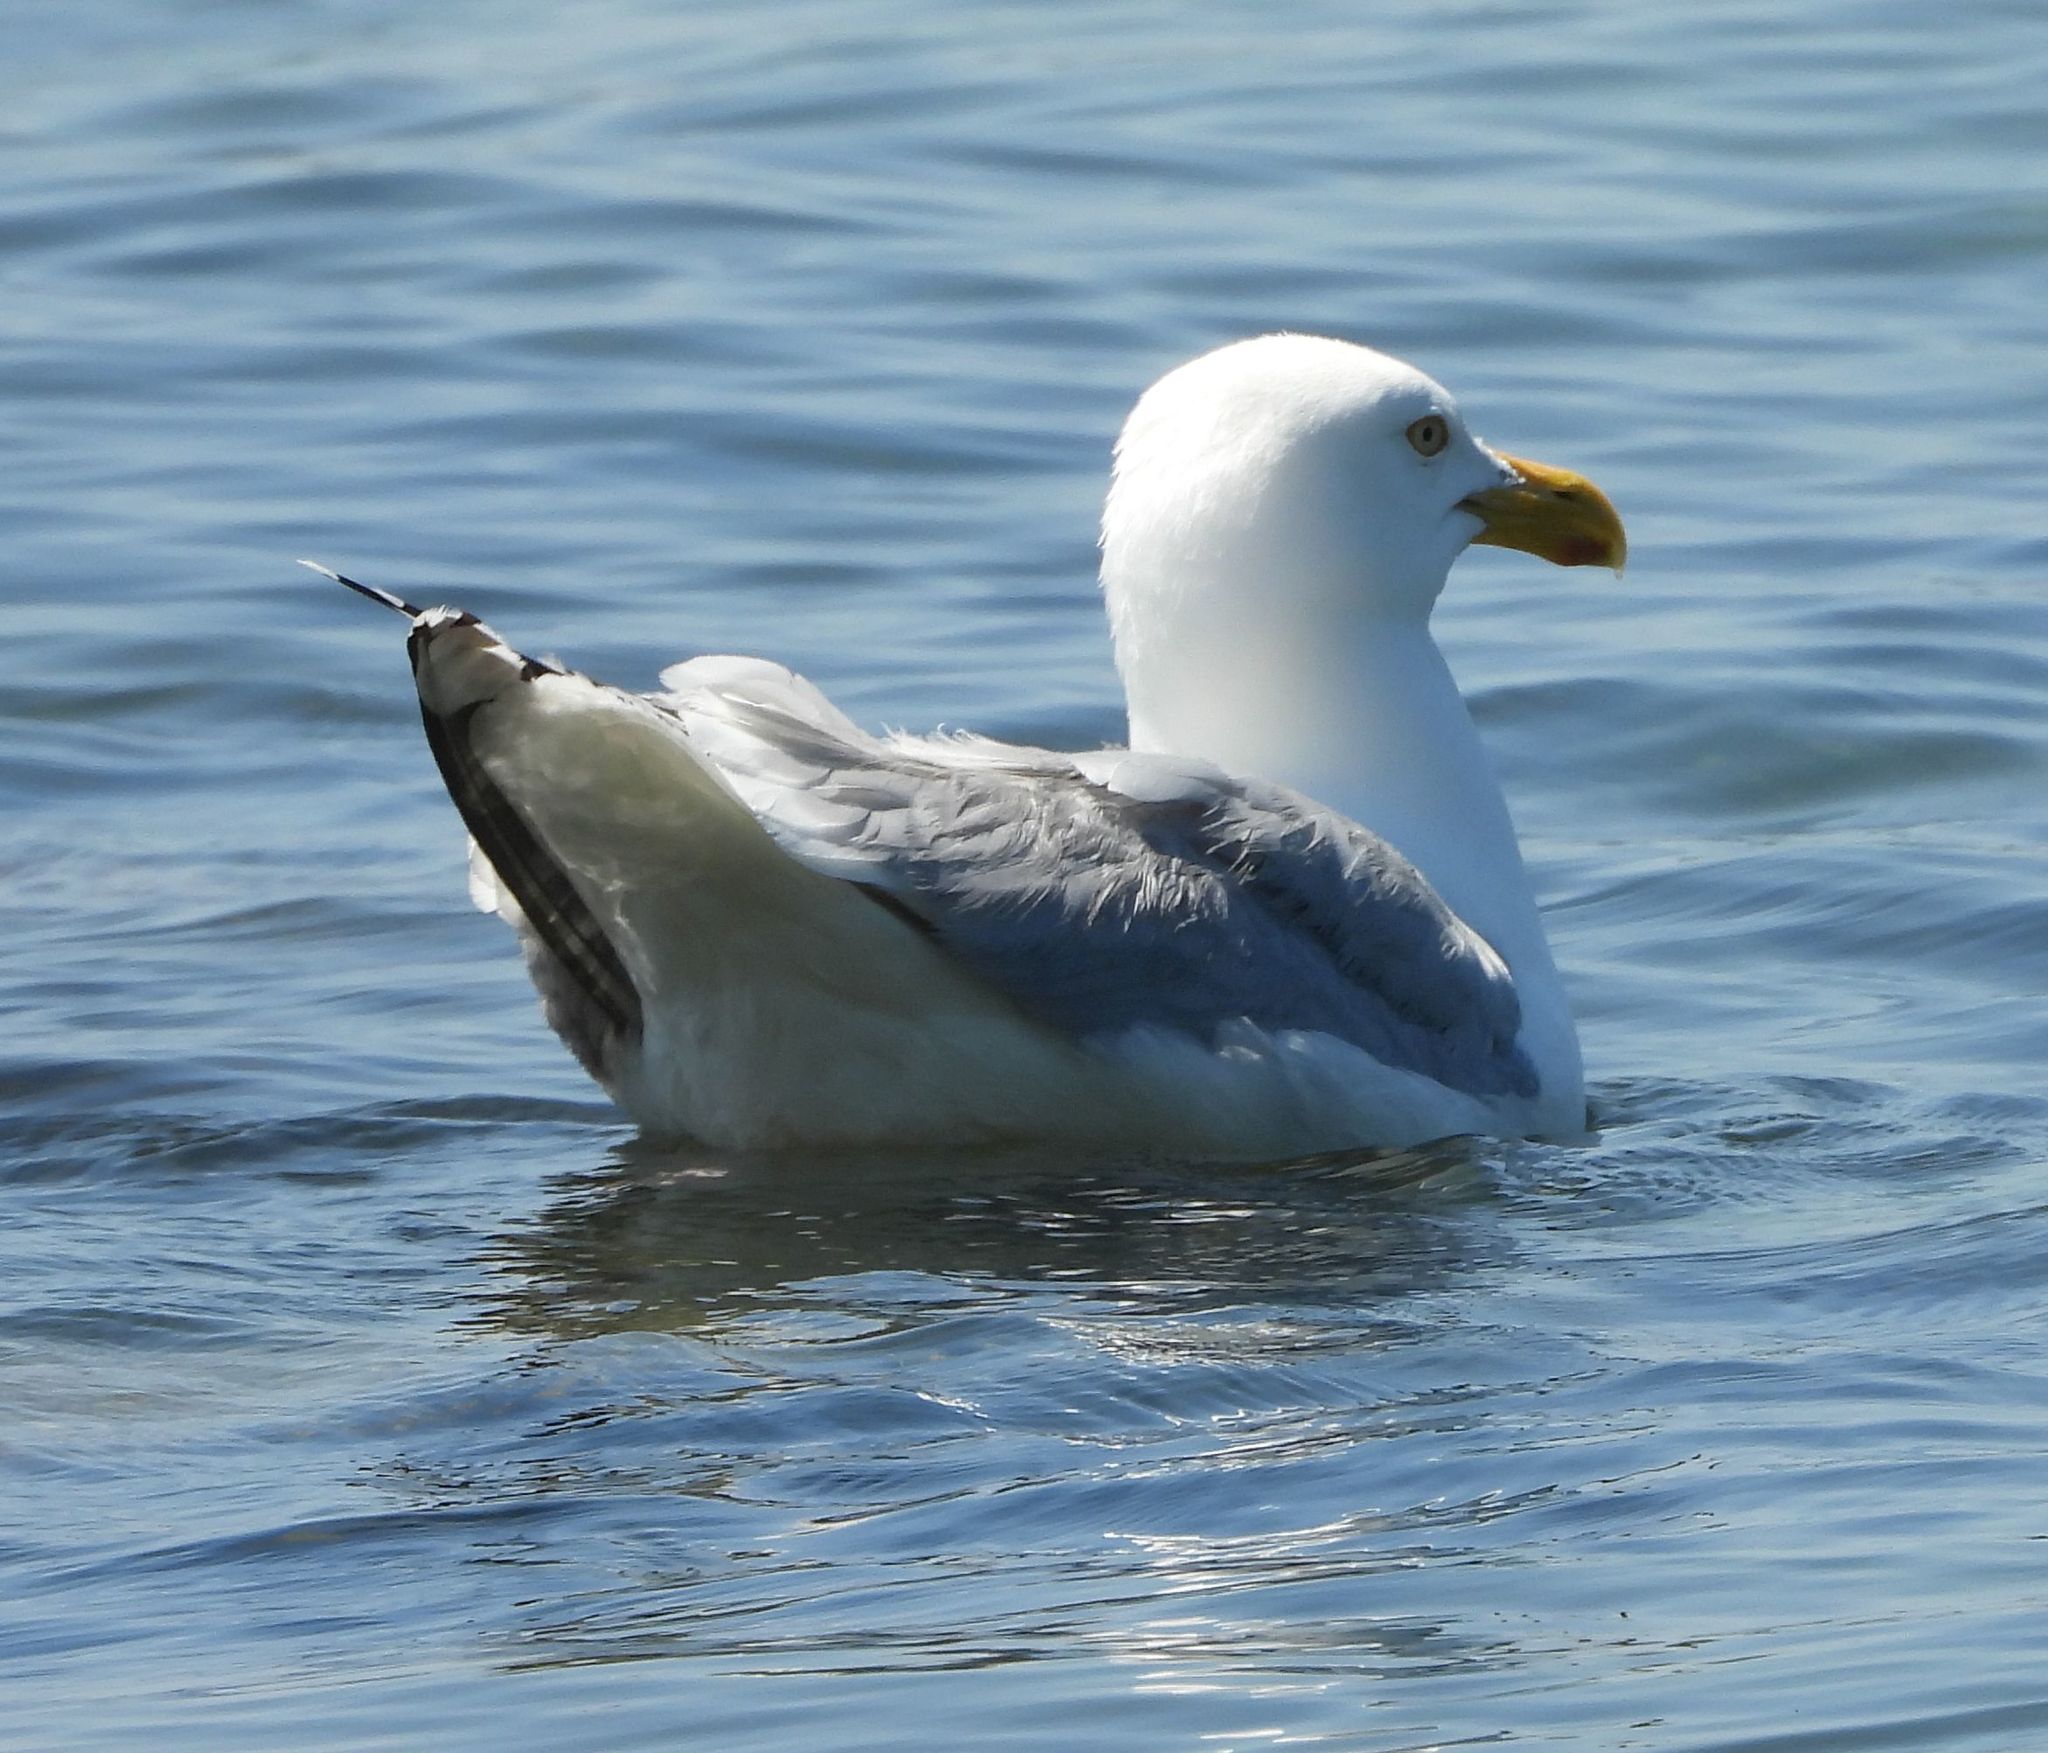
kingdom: Animalia
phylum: Chordata
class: Aves
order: Charadriiformes
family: Laridae
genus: Larus
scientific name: Larus argentatus
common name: Herring gull
